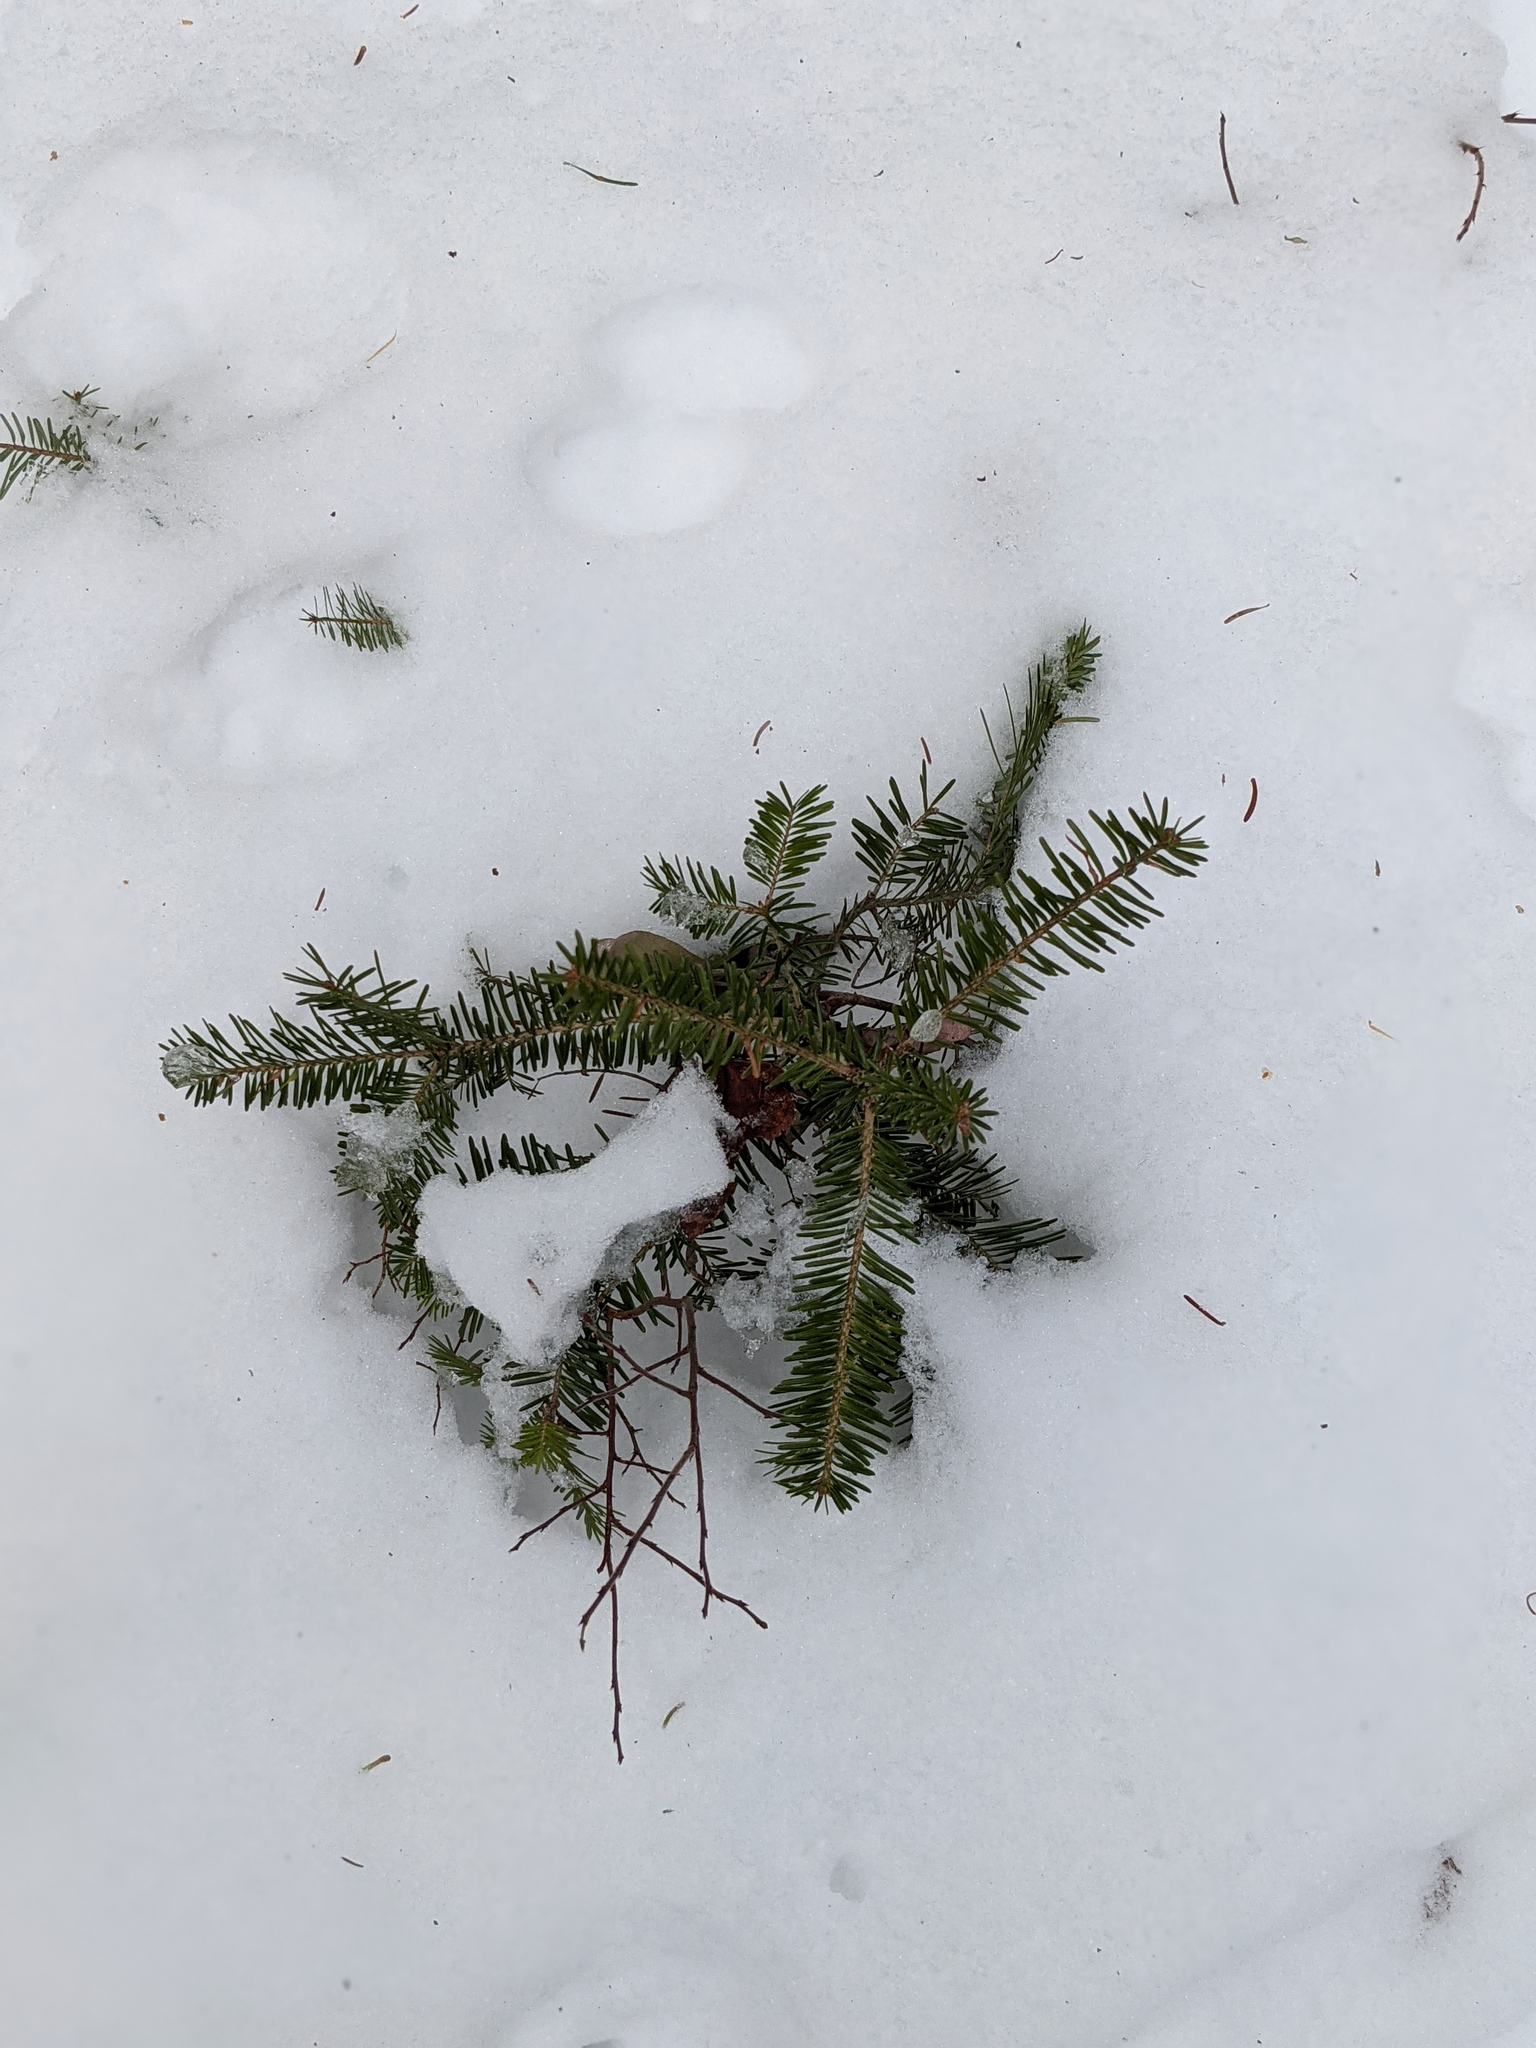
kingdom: Plantae
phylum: Tracheophyta
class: Pinopsida
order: Pinales
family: Pinaceae
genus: Abies
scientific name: Abies balsamea
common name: Balsam fir
